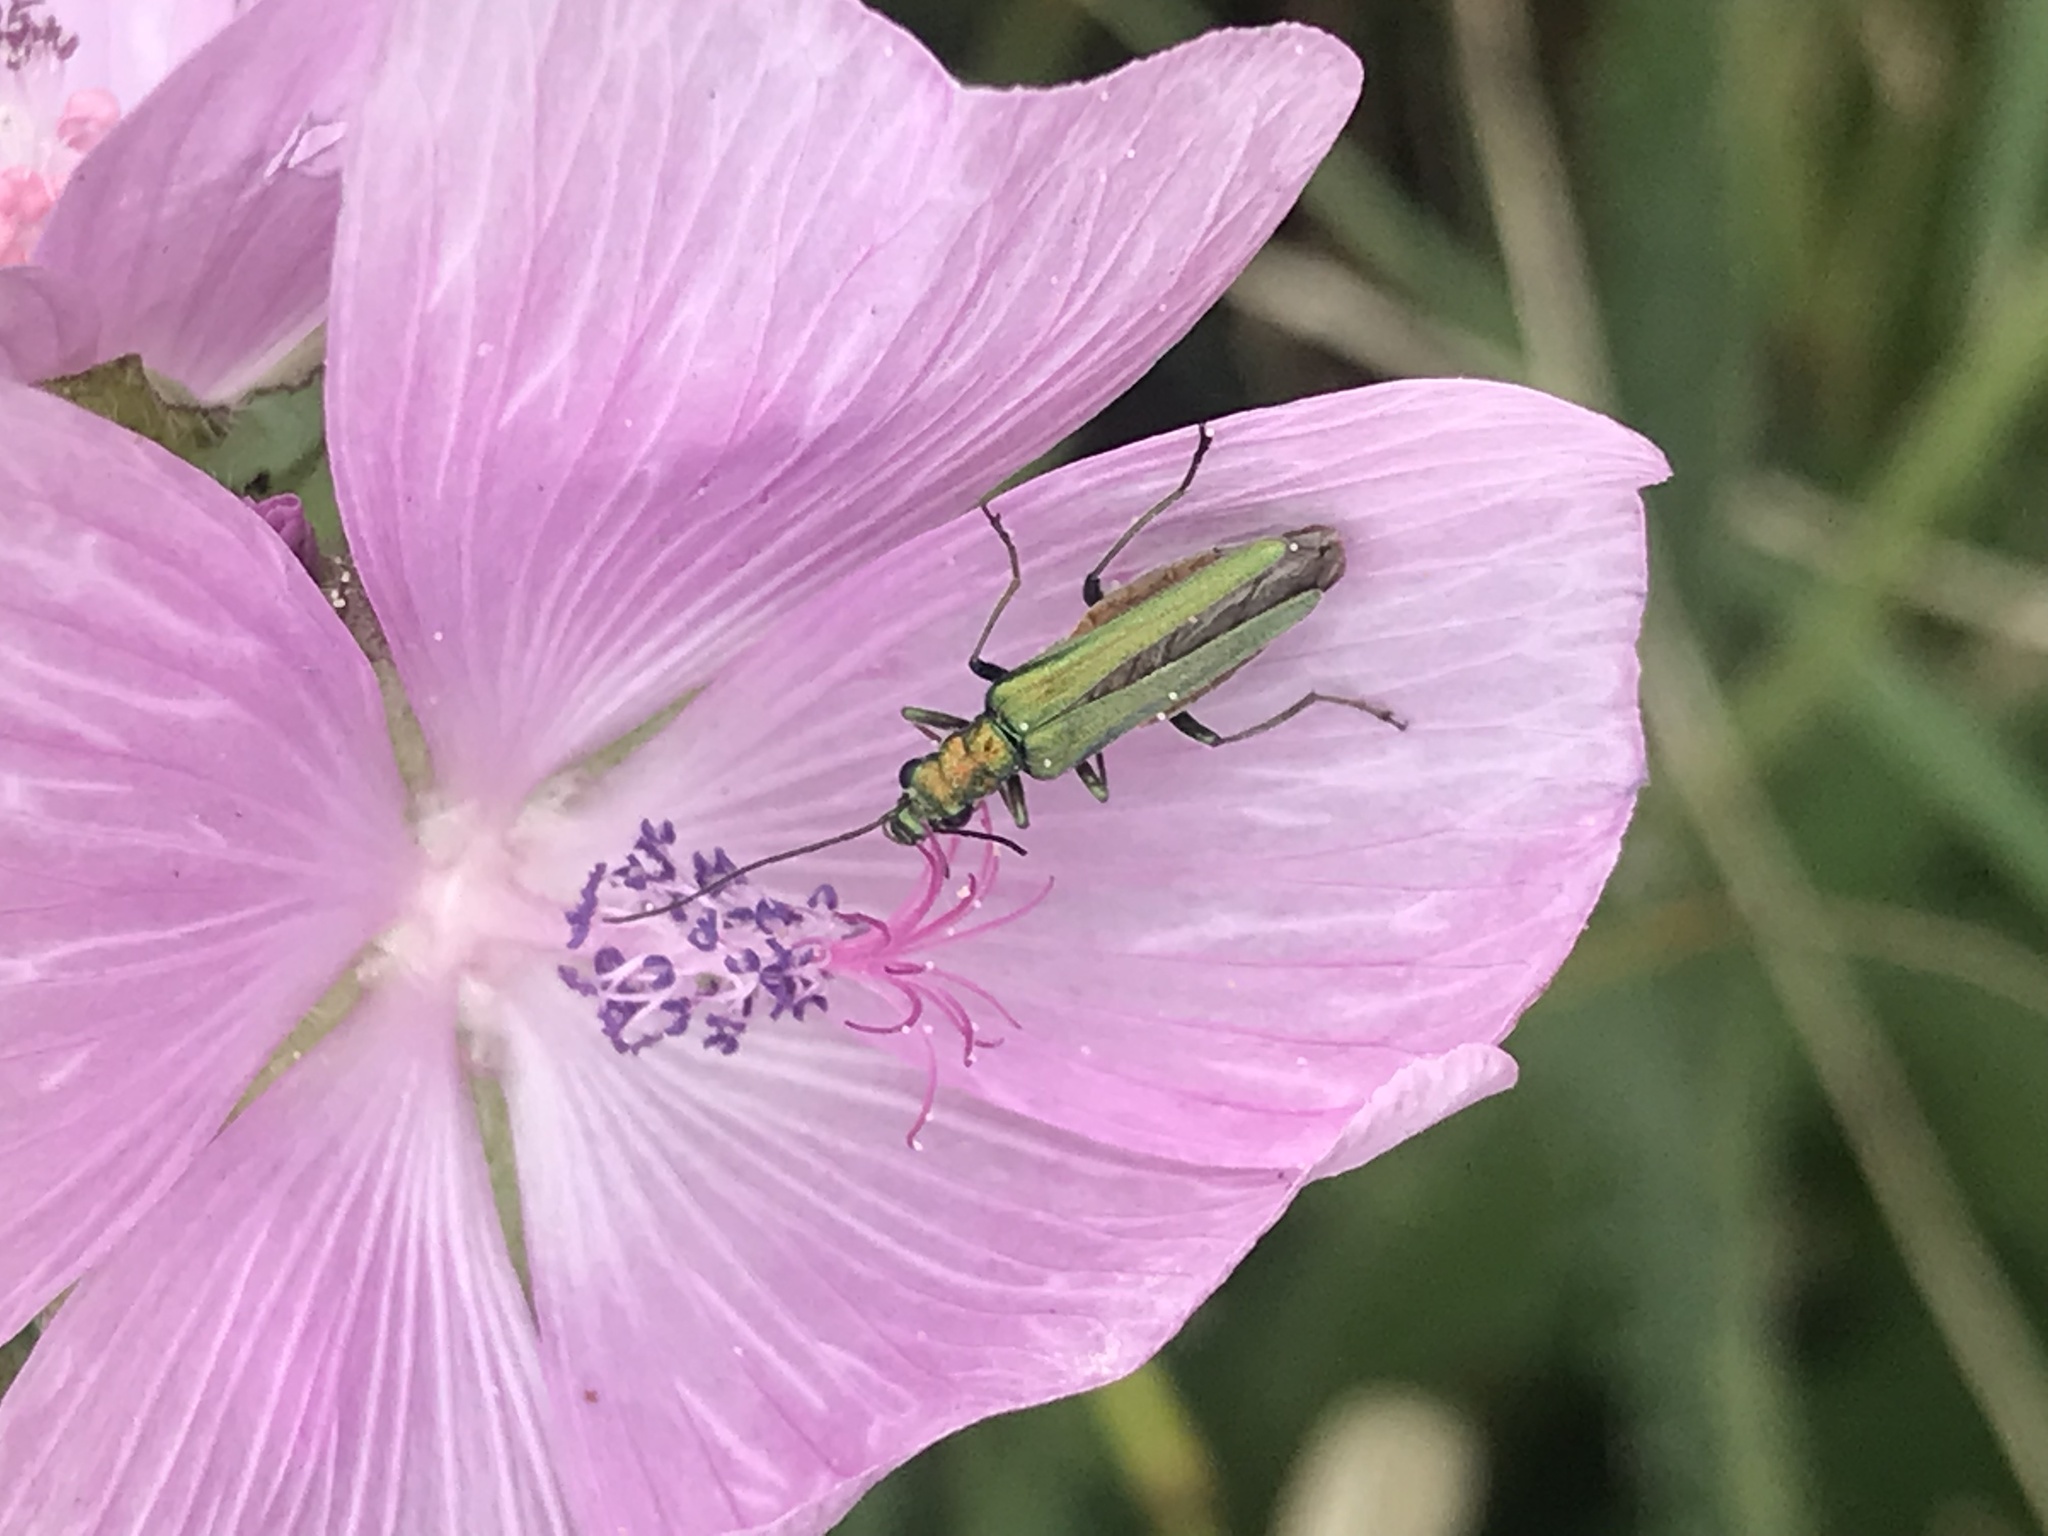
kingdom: Animalia
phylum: Arthropoda
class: Insecta
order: Coleoptera
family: Oedemeridae
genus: Oedemera
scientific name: Oedemera nobilis
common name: Swollen-thighed beetle
